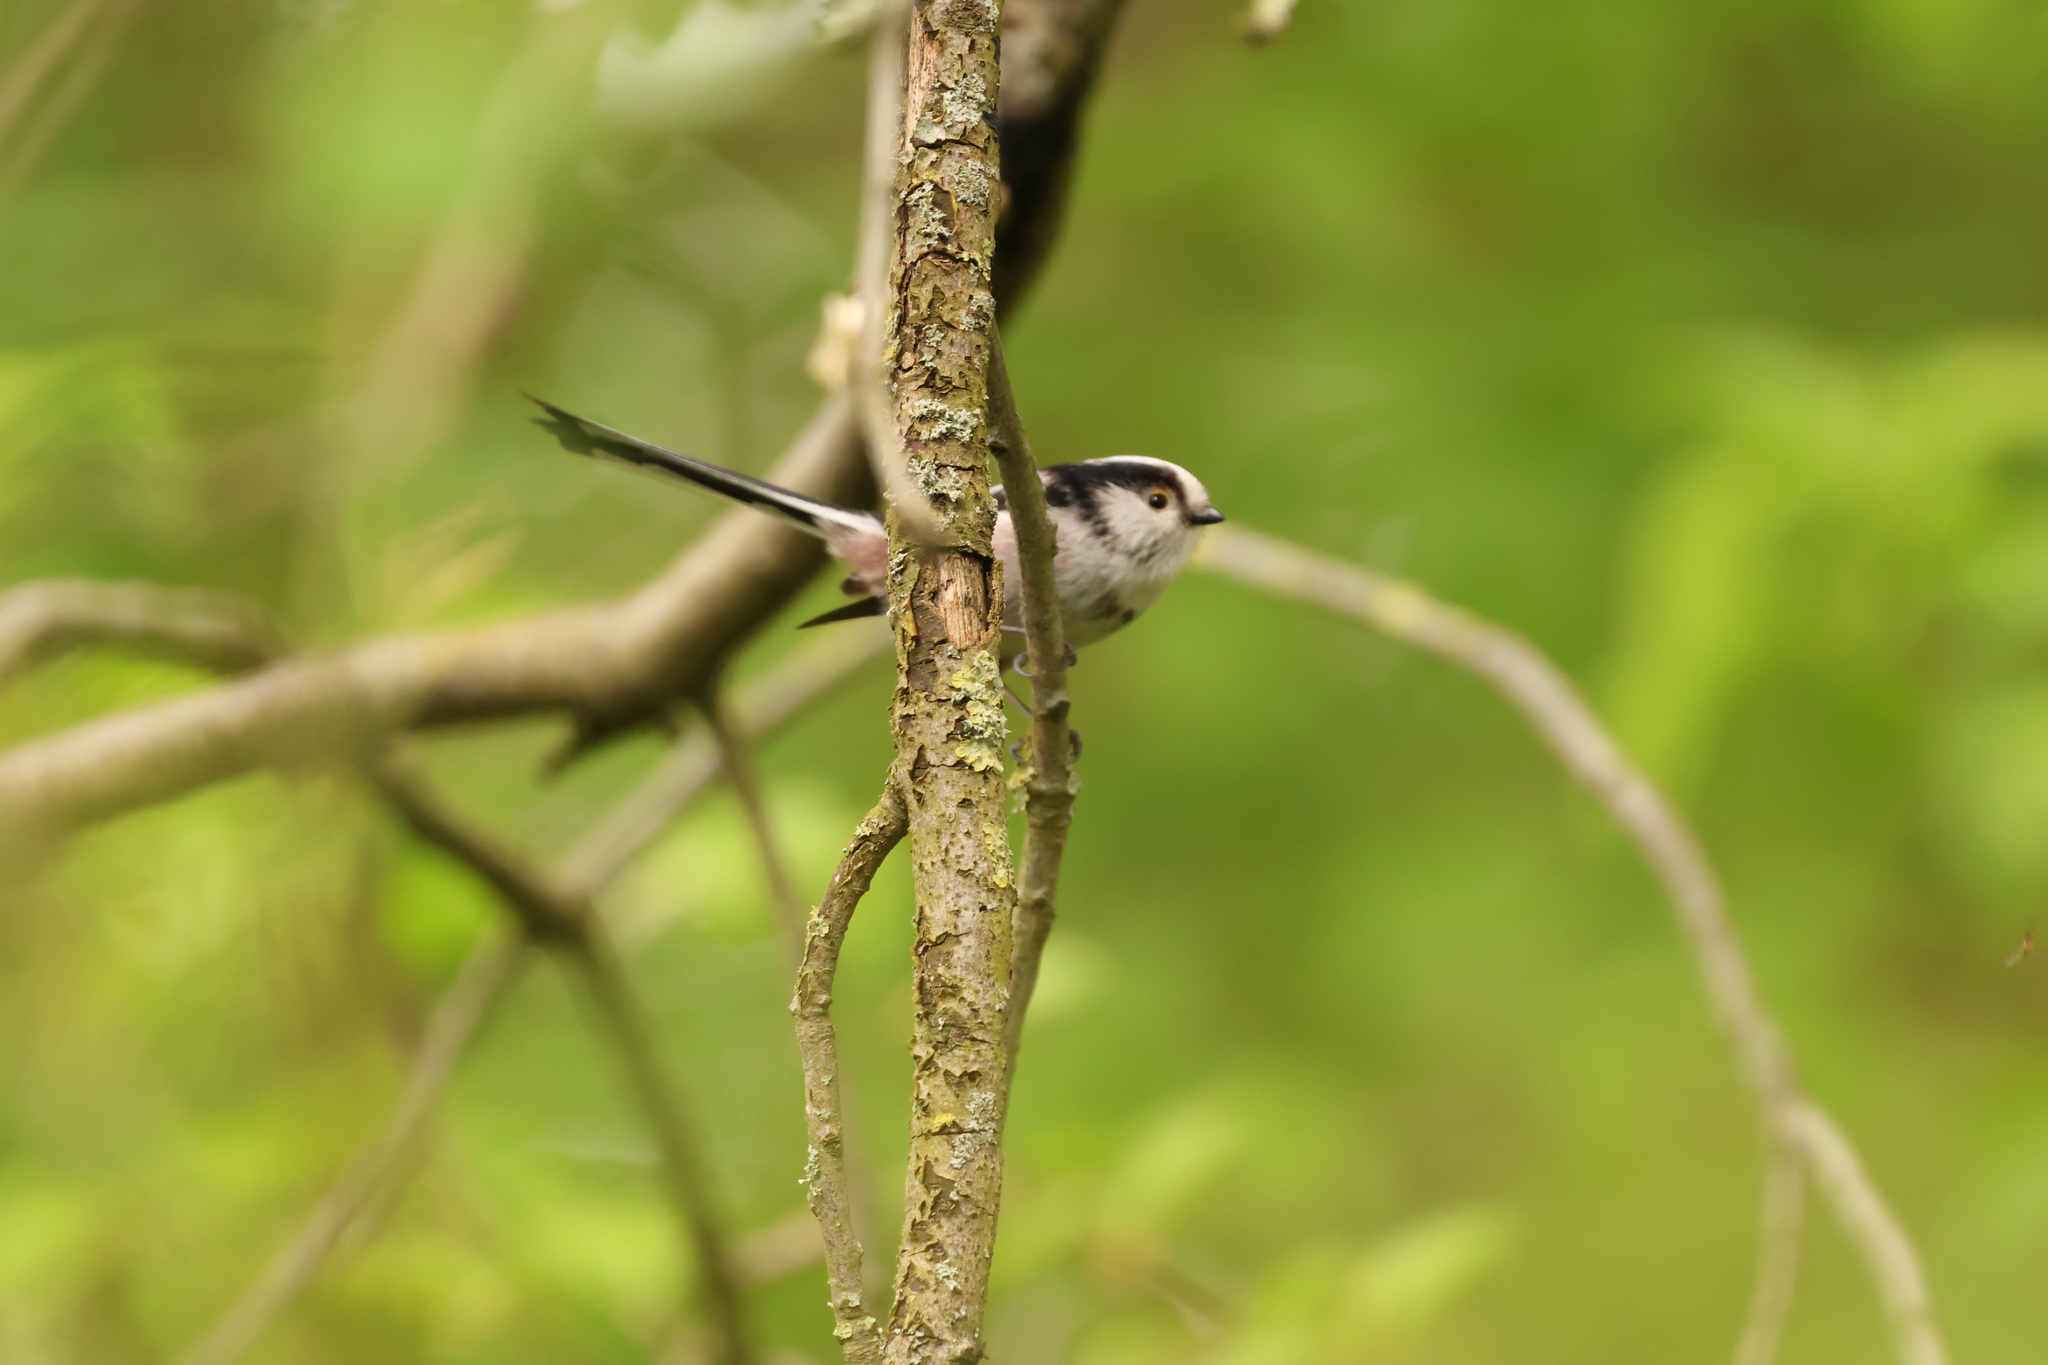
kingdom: Animalia
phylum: Chordata
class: Aves
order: Passeriformes
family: Aegithalidae
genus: Aegithalos
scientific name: Aegithalos caudatus
